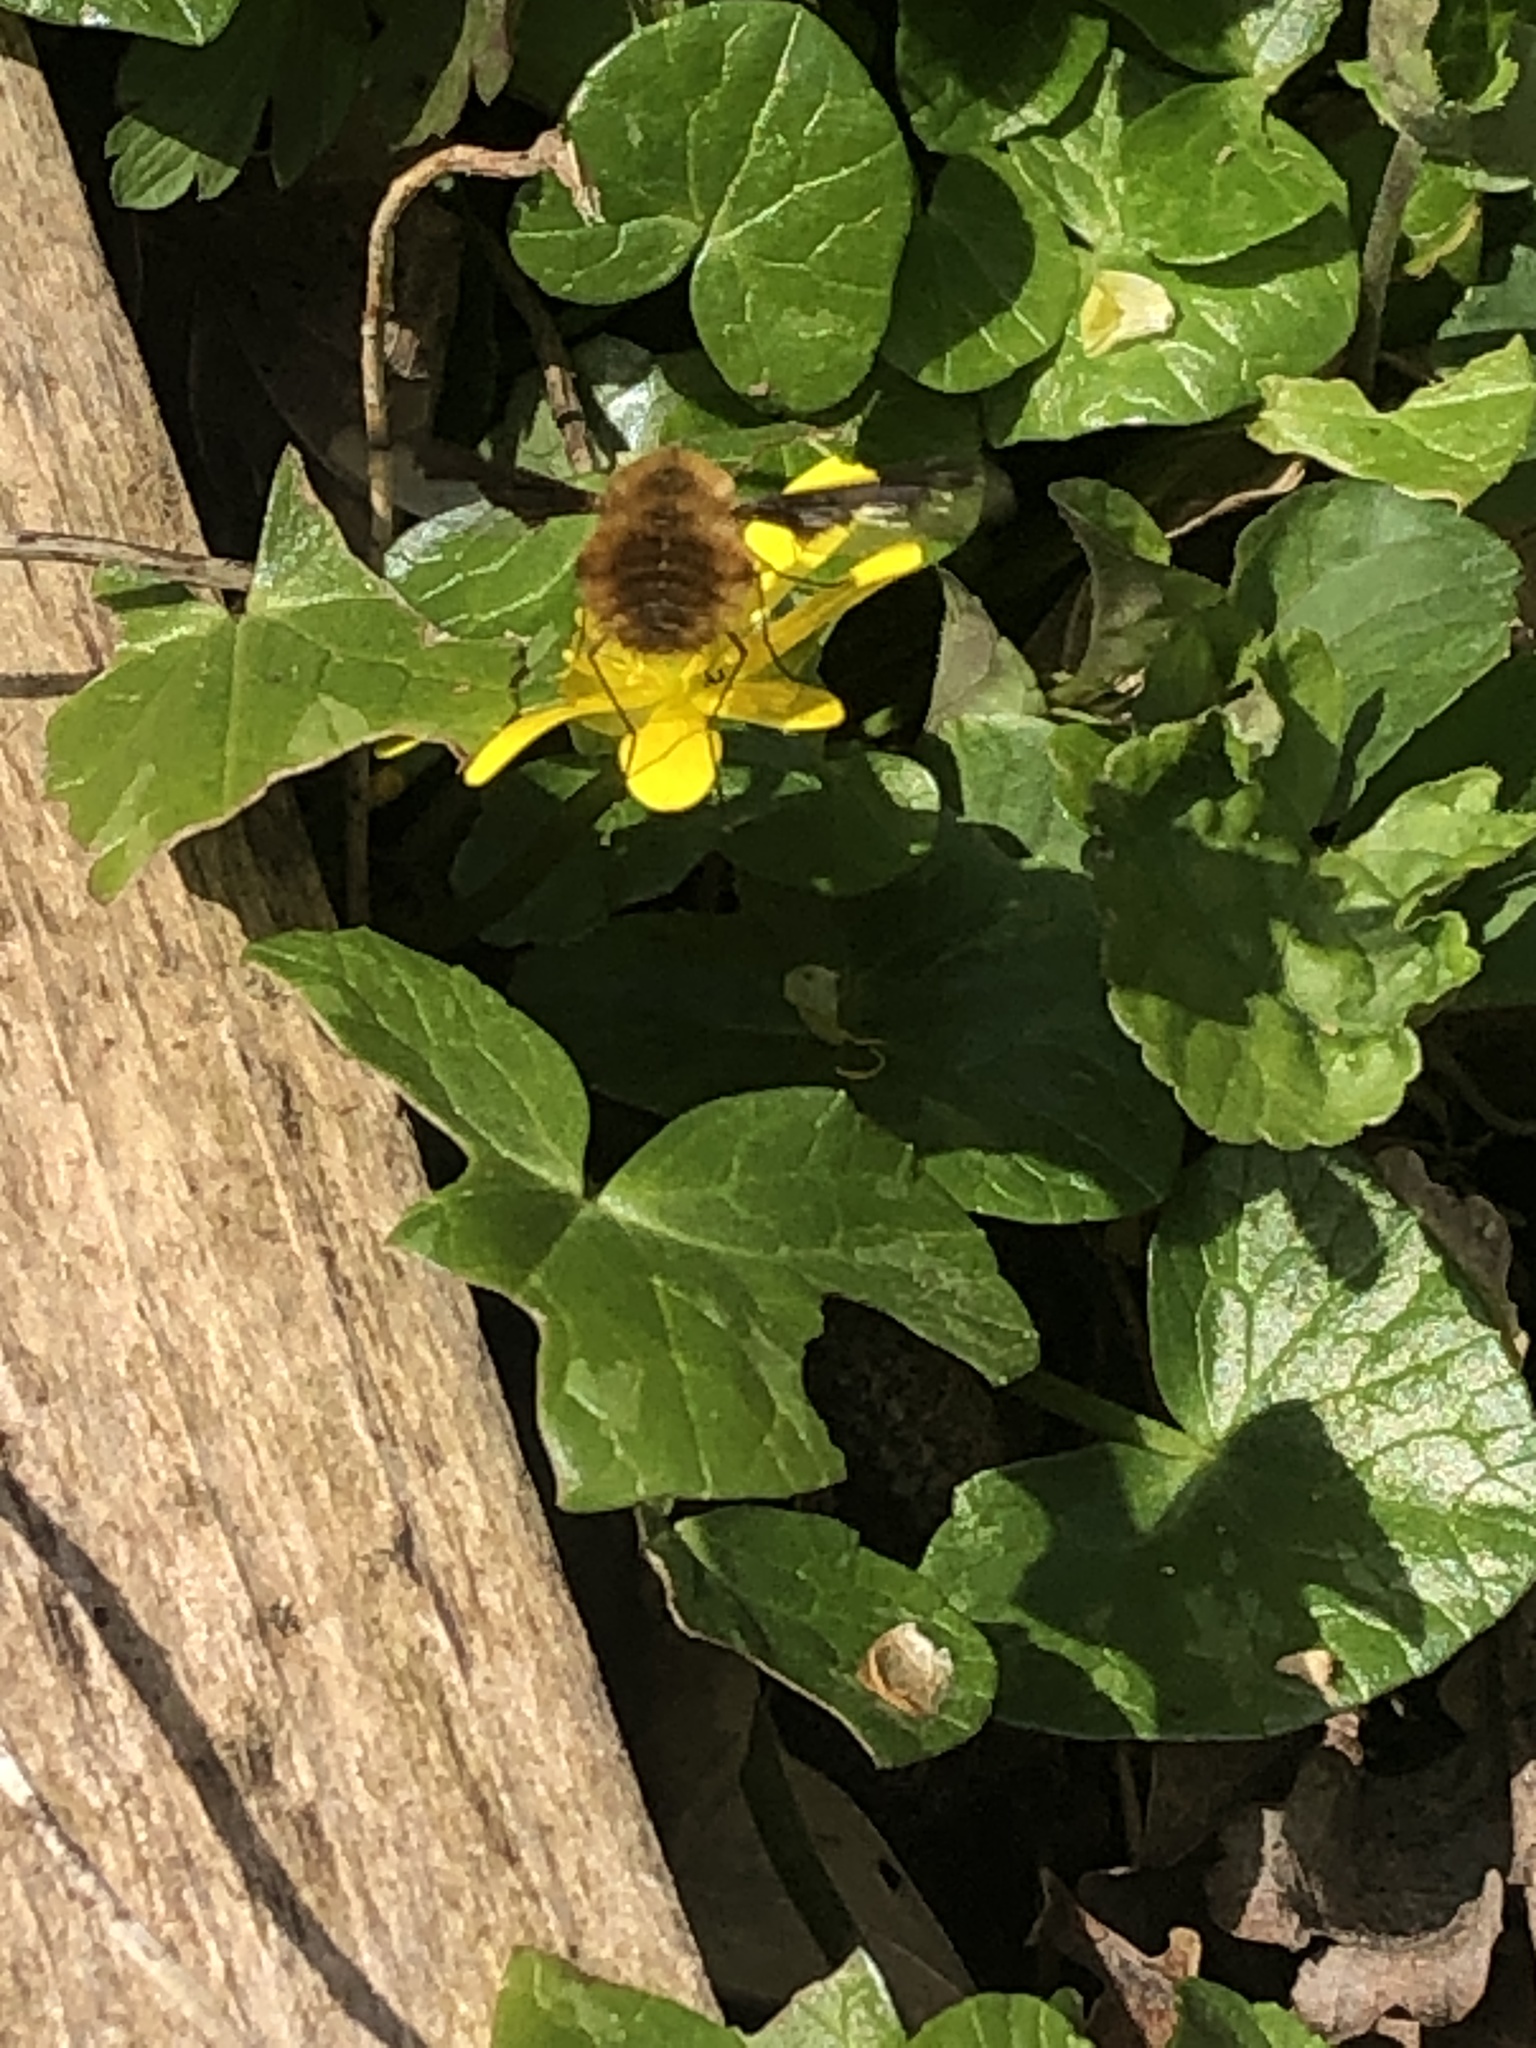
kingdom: Animalia
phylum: Arthropoda
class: Insecta
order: Diptera
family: Bombyliidae
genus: Bombylius
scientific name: Bombylius major
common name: Bee fly
